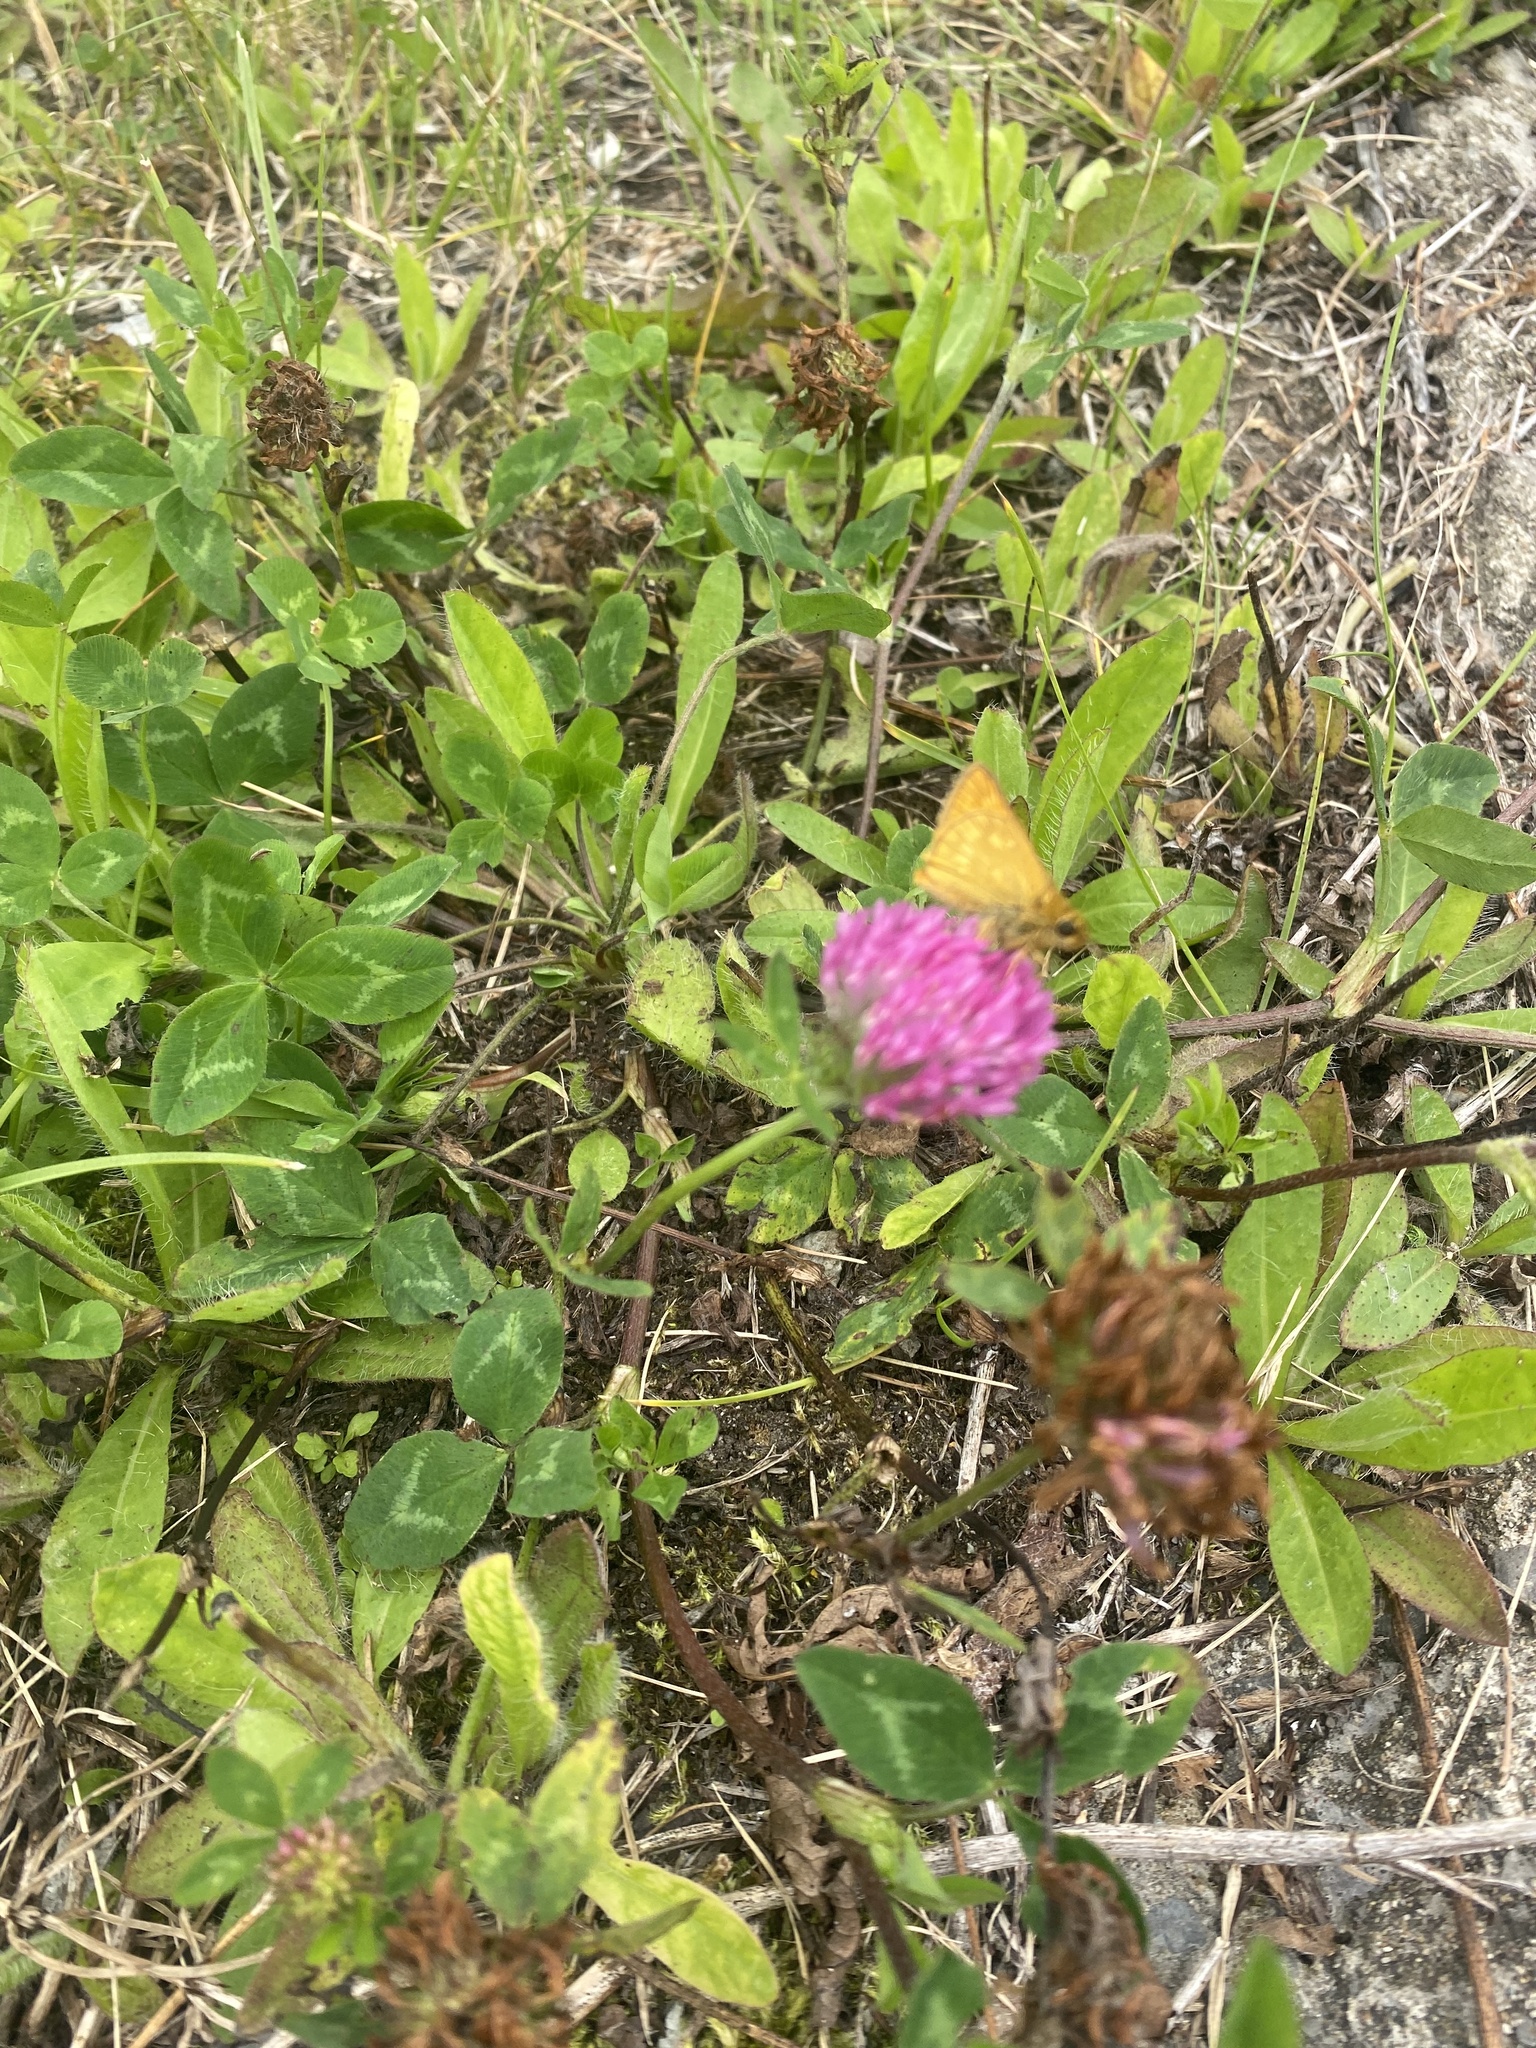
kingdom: Plantae
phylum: Tracheophyta
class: Magnoliopsida
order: Fabales
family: Fabaceae
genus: Trifolium
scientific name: Trifolium pratense
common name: Red clover
